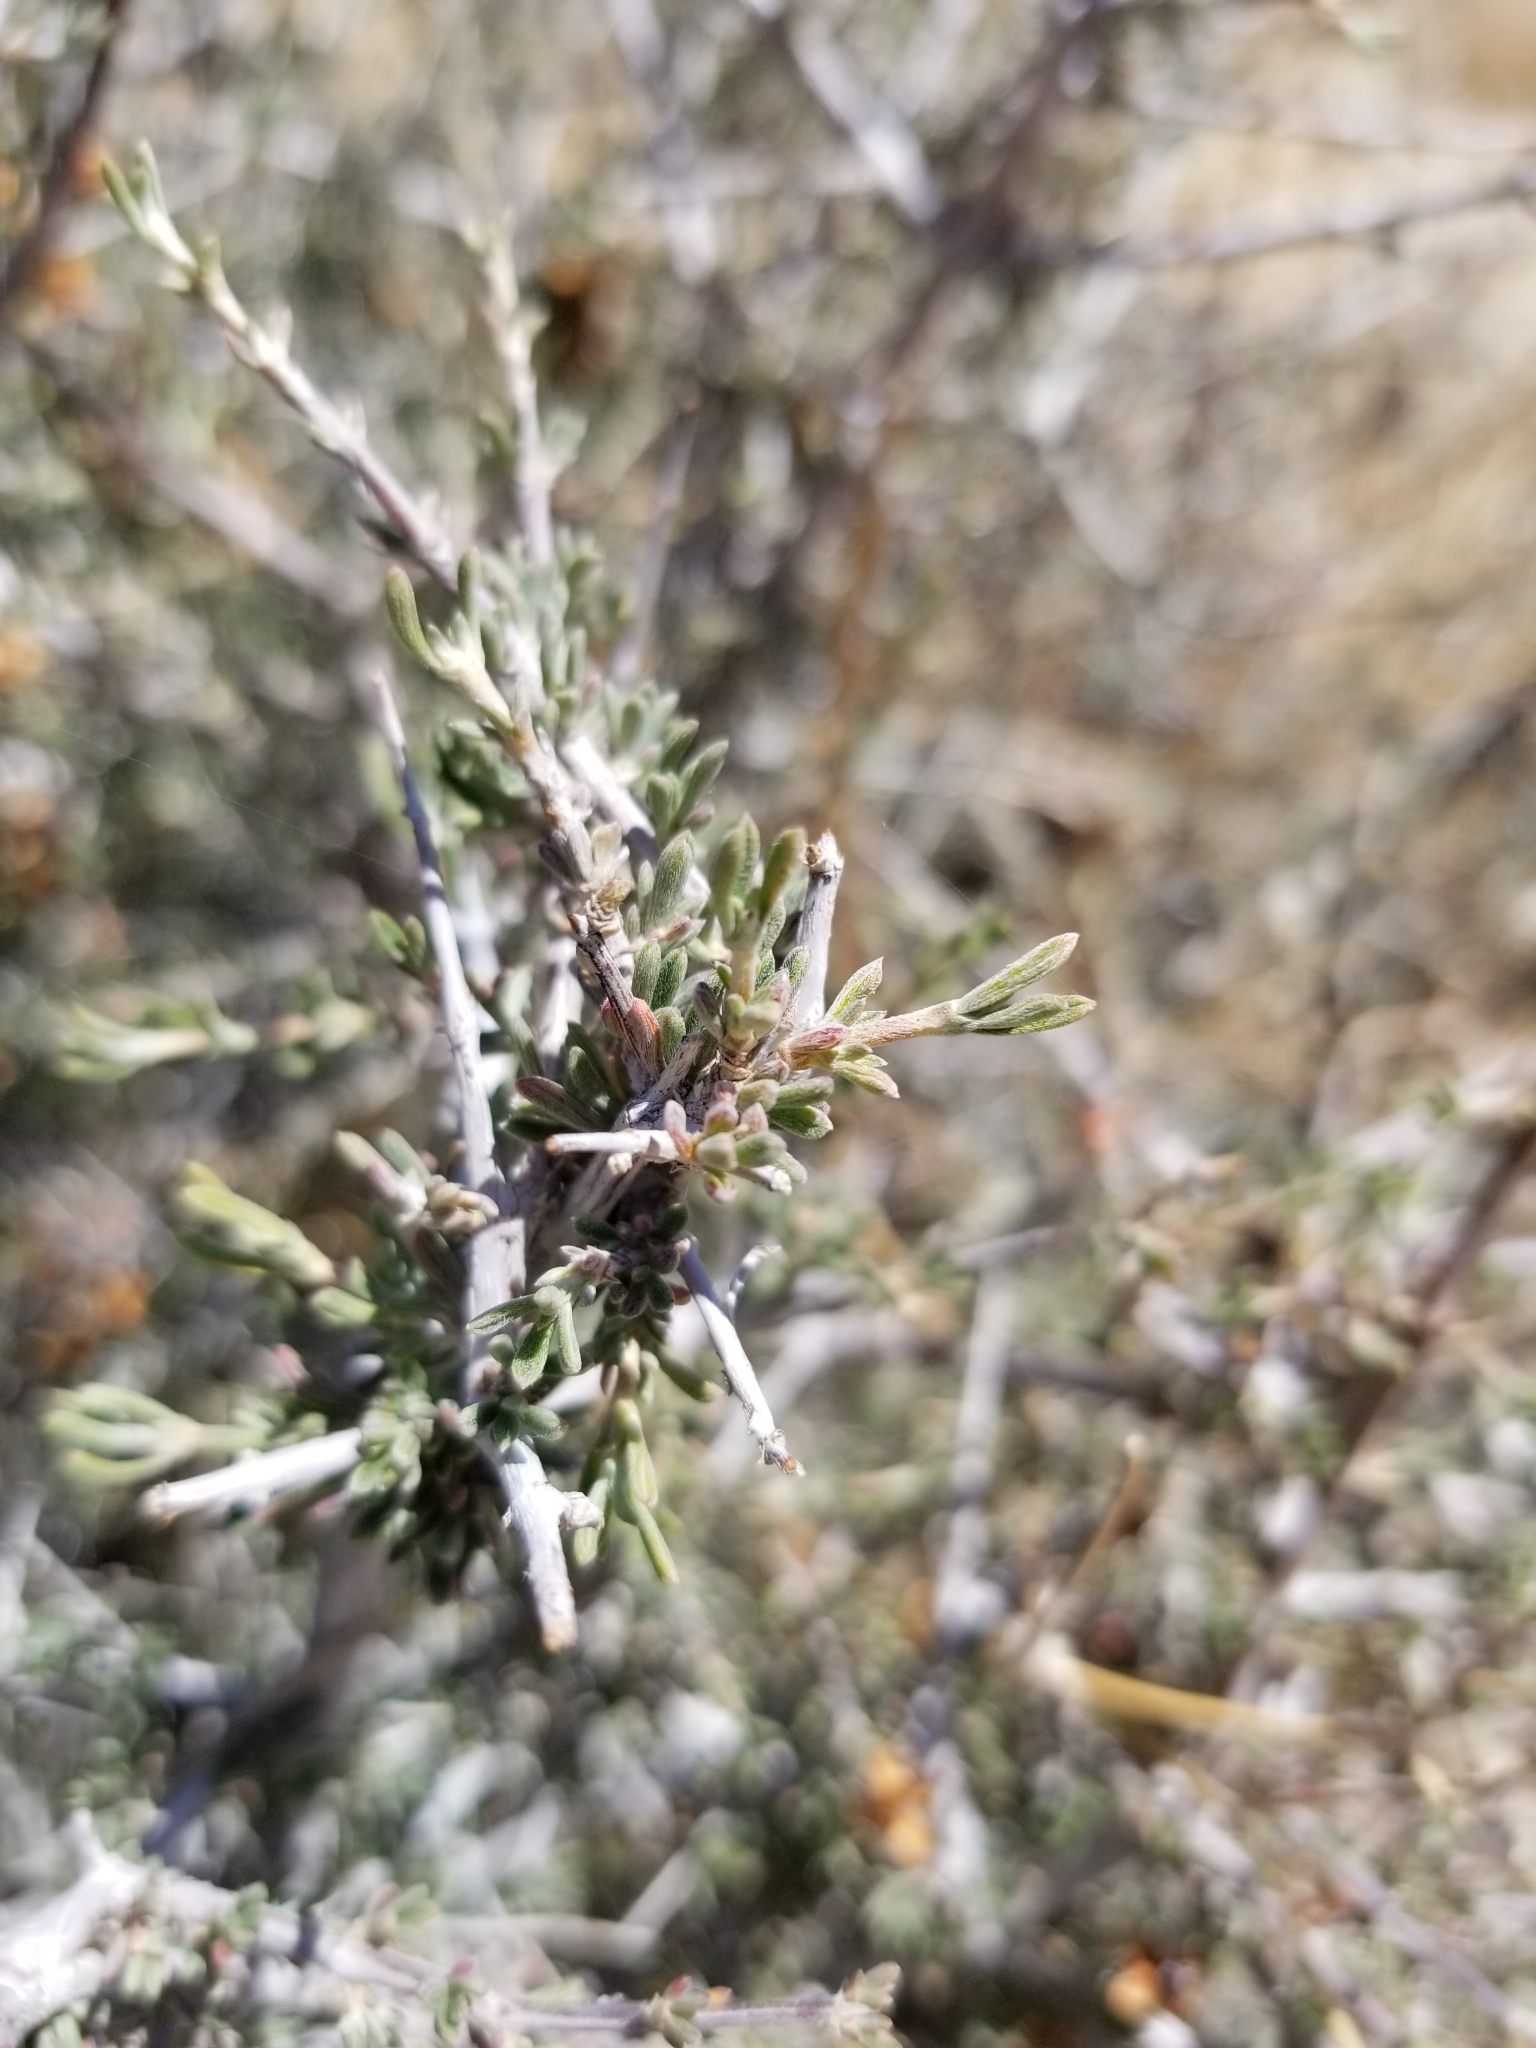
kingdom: Plantae
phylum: Tracheophyta
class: Magnoliopsida
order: Rosales
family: Rosaceae
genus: Coleogyne
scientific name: Coleogyne ramosissima
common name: Blackbrush
